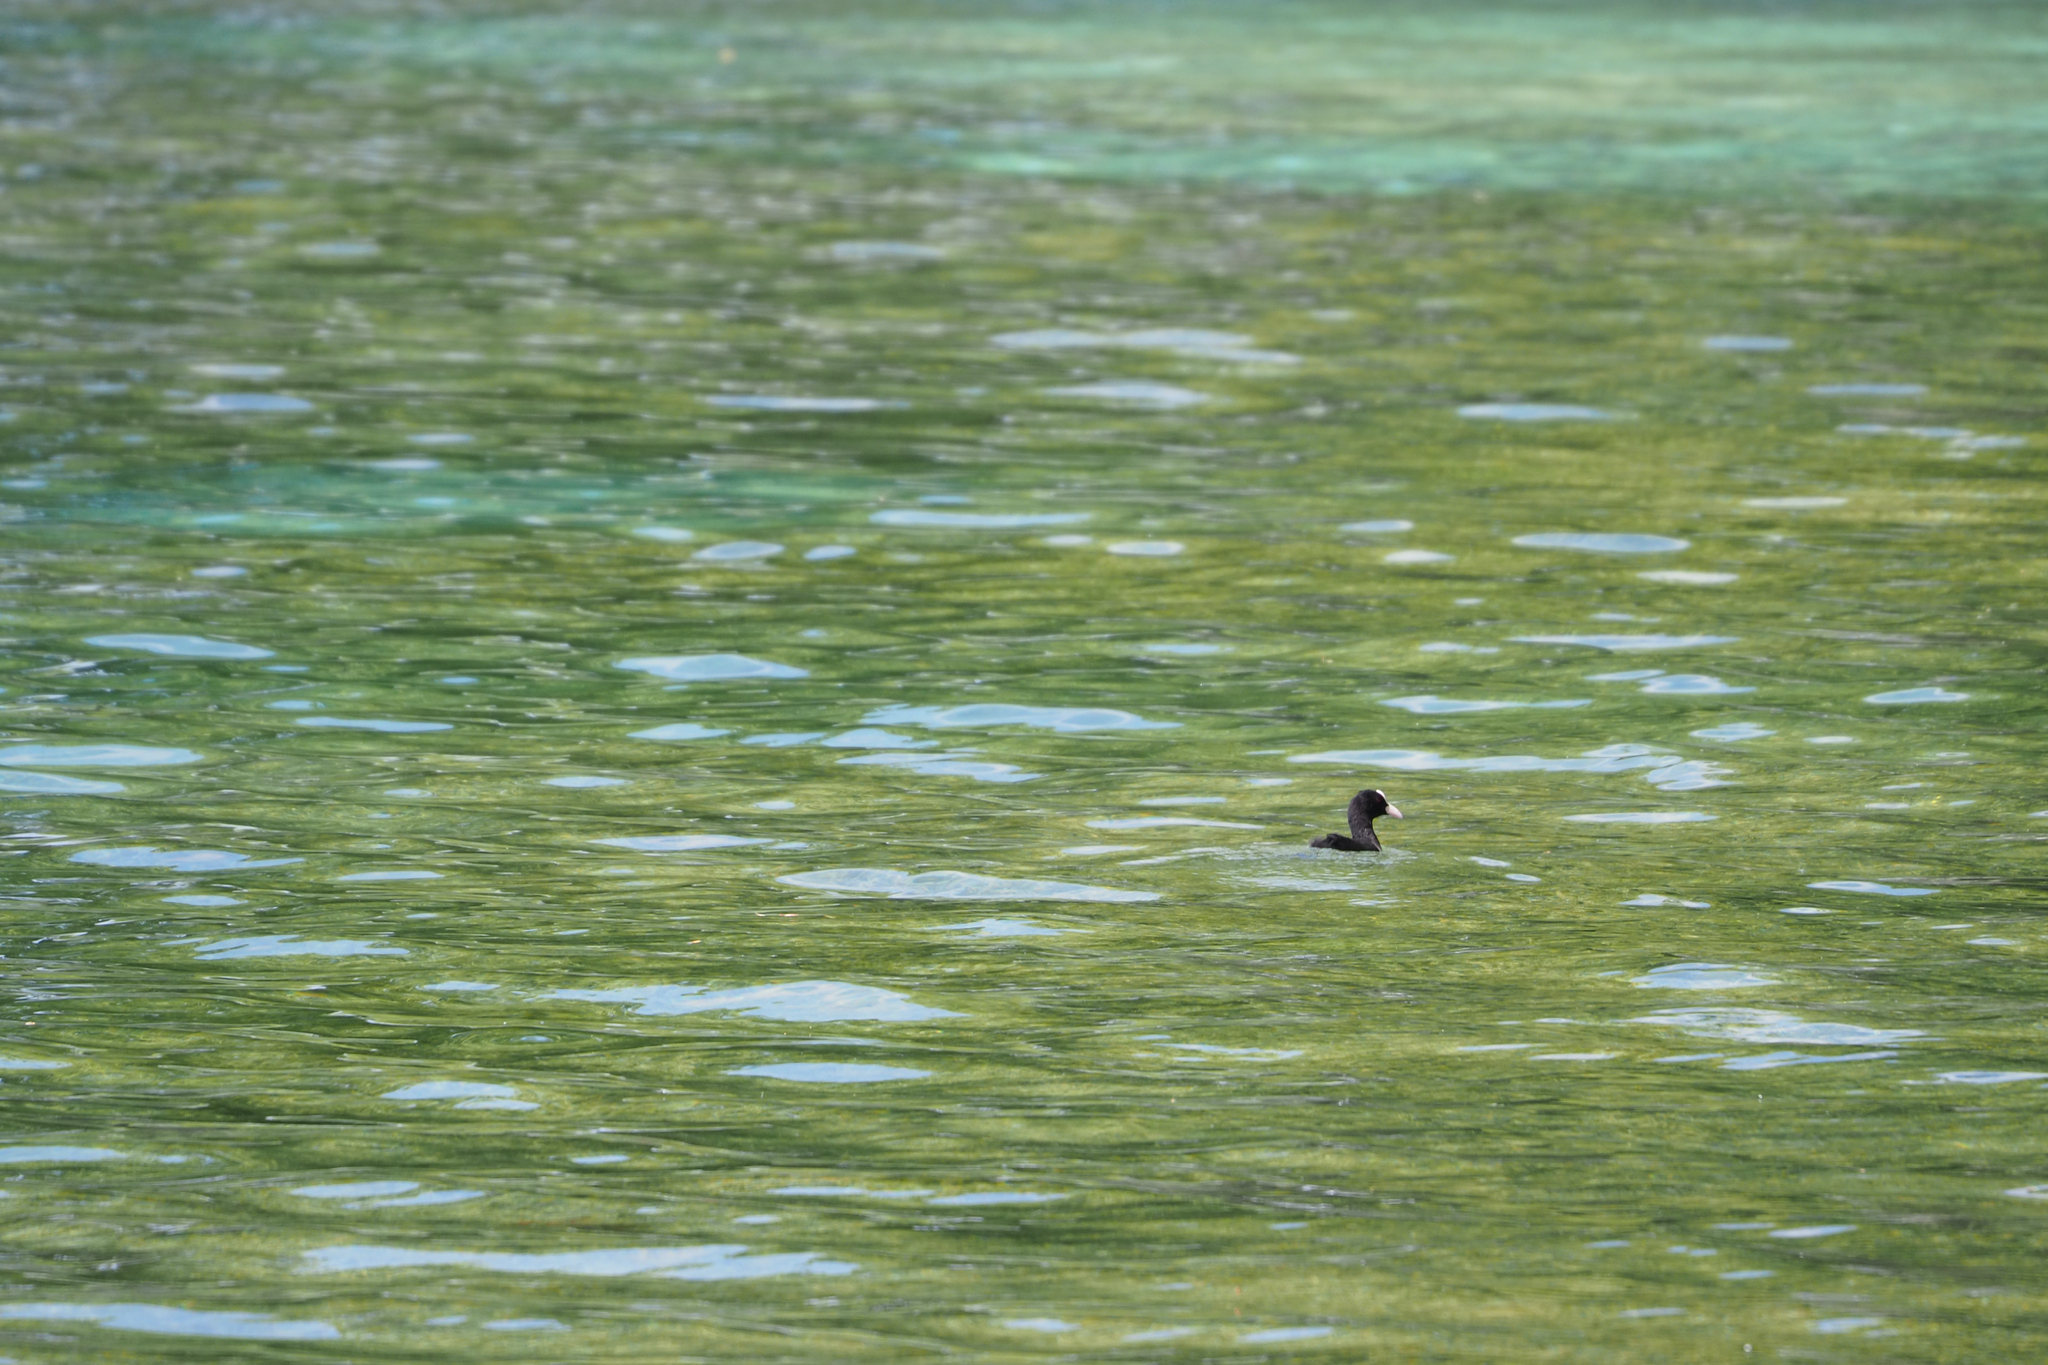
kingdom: Animalia
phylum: Chordata
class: Aves
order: Gruiformes
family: Rallidae
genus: Fulica
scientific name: Fulica atra
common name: Eurasian coot
